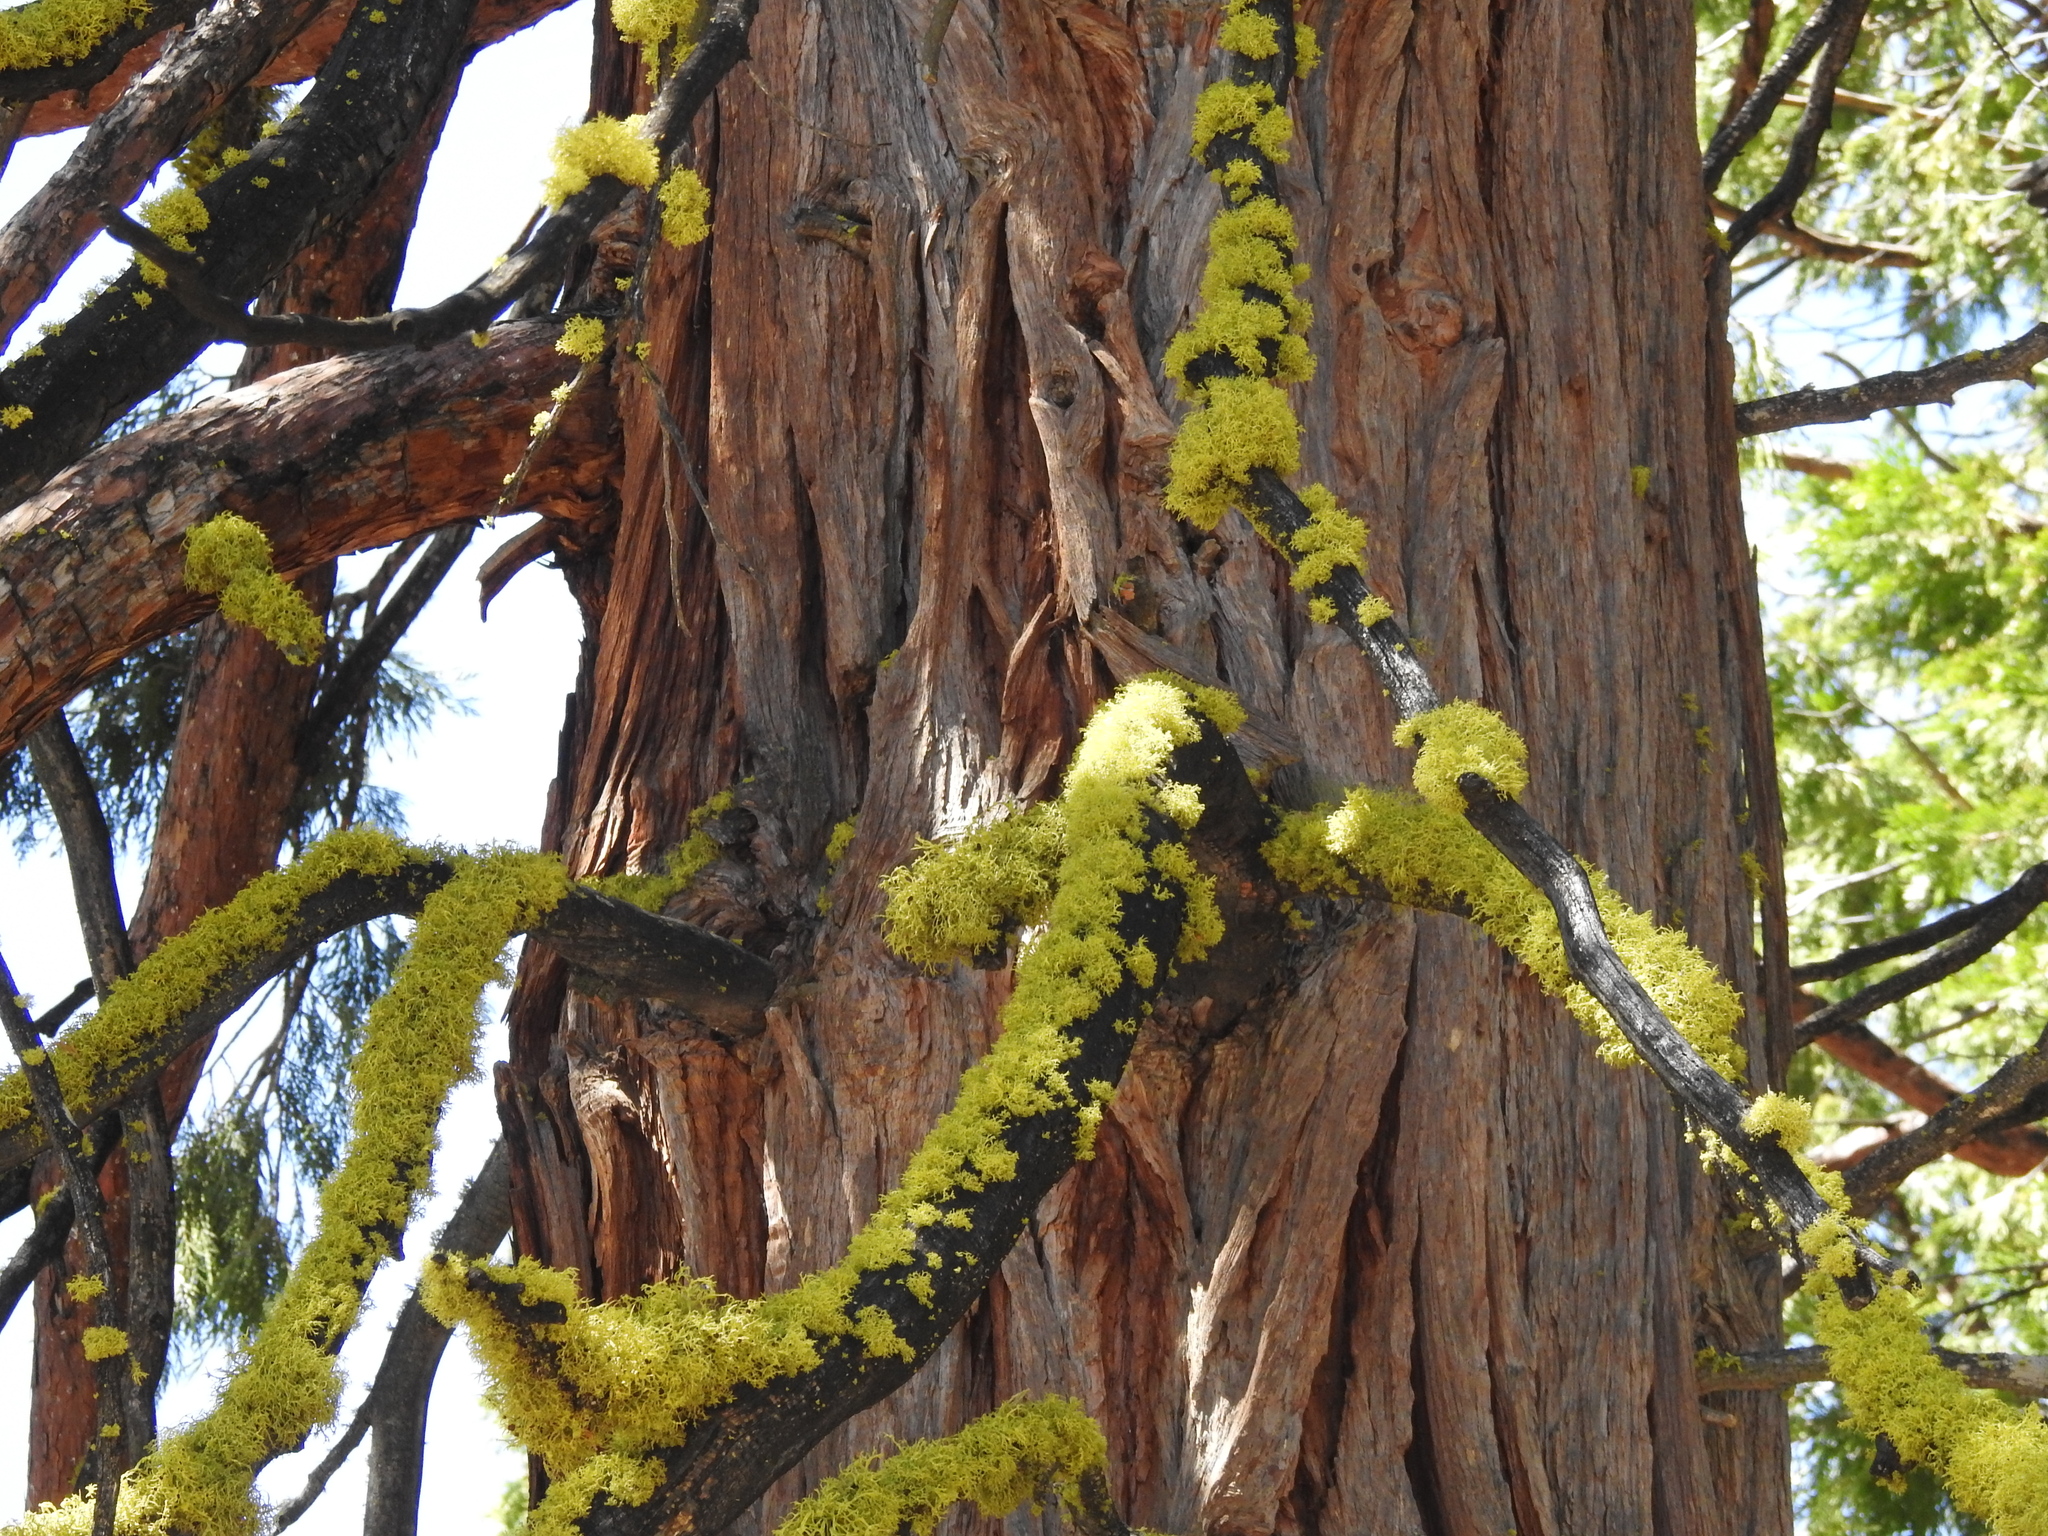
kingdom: Plantae
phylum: Tracheophyta
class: Pinopsida
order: Pinales
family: Cupressaceae
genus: Calocedrus
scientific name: Calocedrus decurrens
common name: Californian incense-cedar
